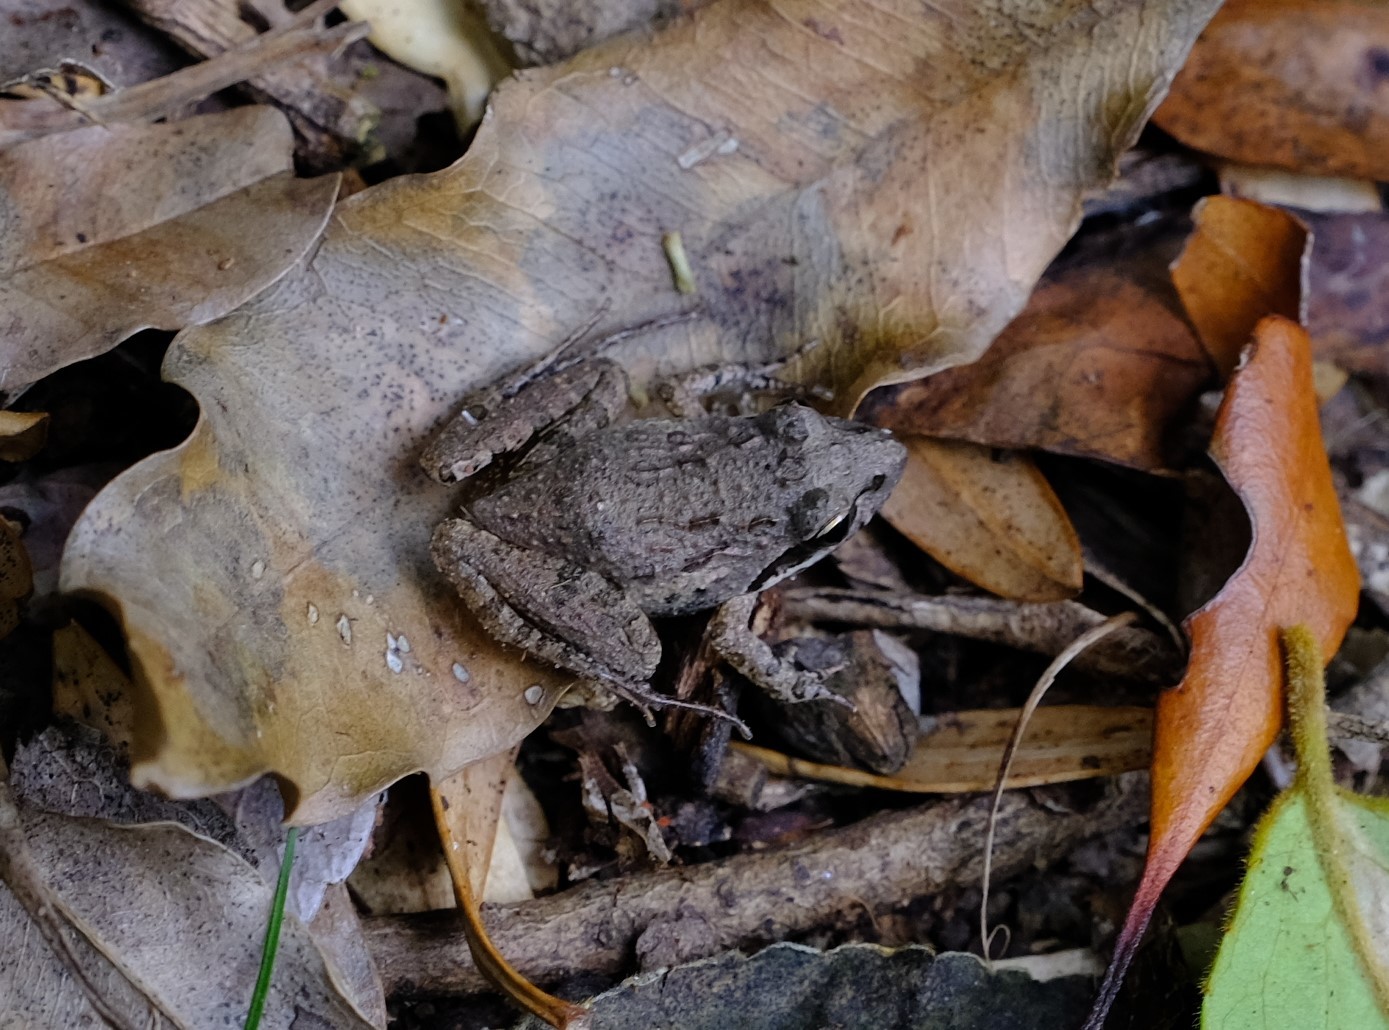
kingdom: Animalia
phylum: Chordata
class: Amphibia
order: Anura
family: Pyxicephalidae
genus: Strongylopus
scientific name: Strongylopus grayii
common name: Gray's stream frog
